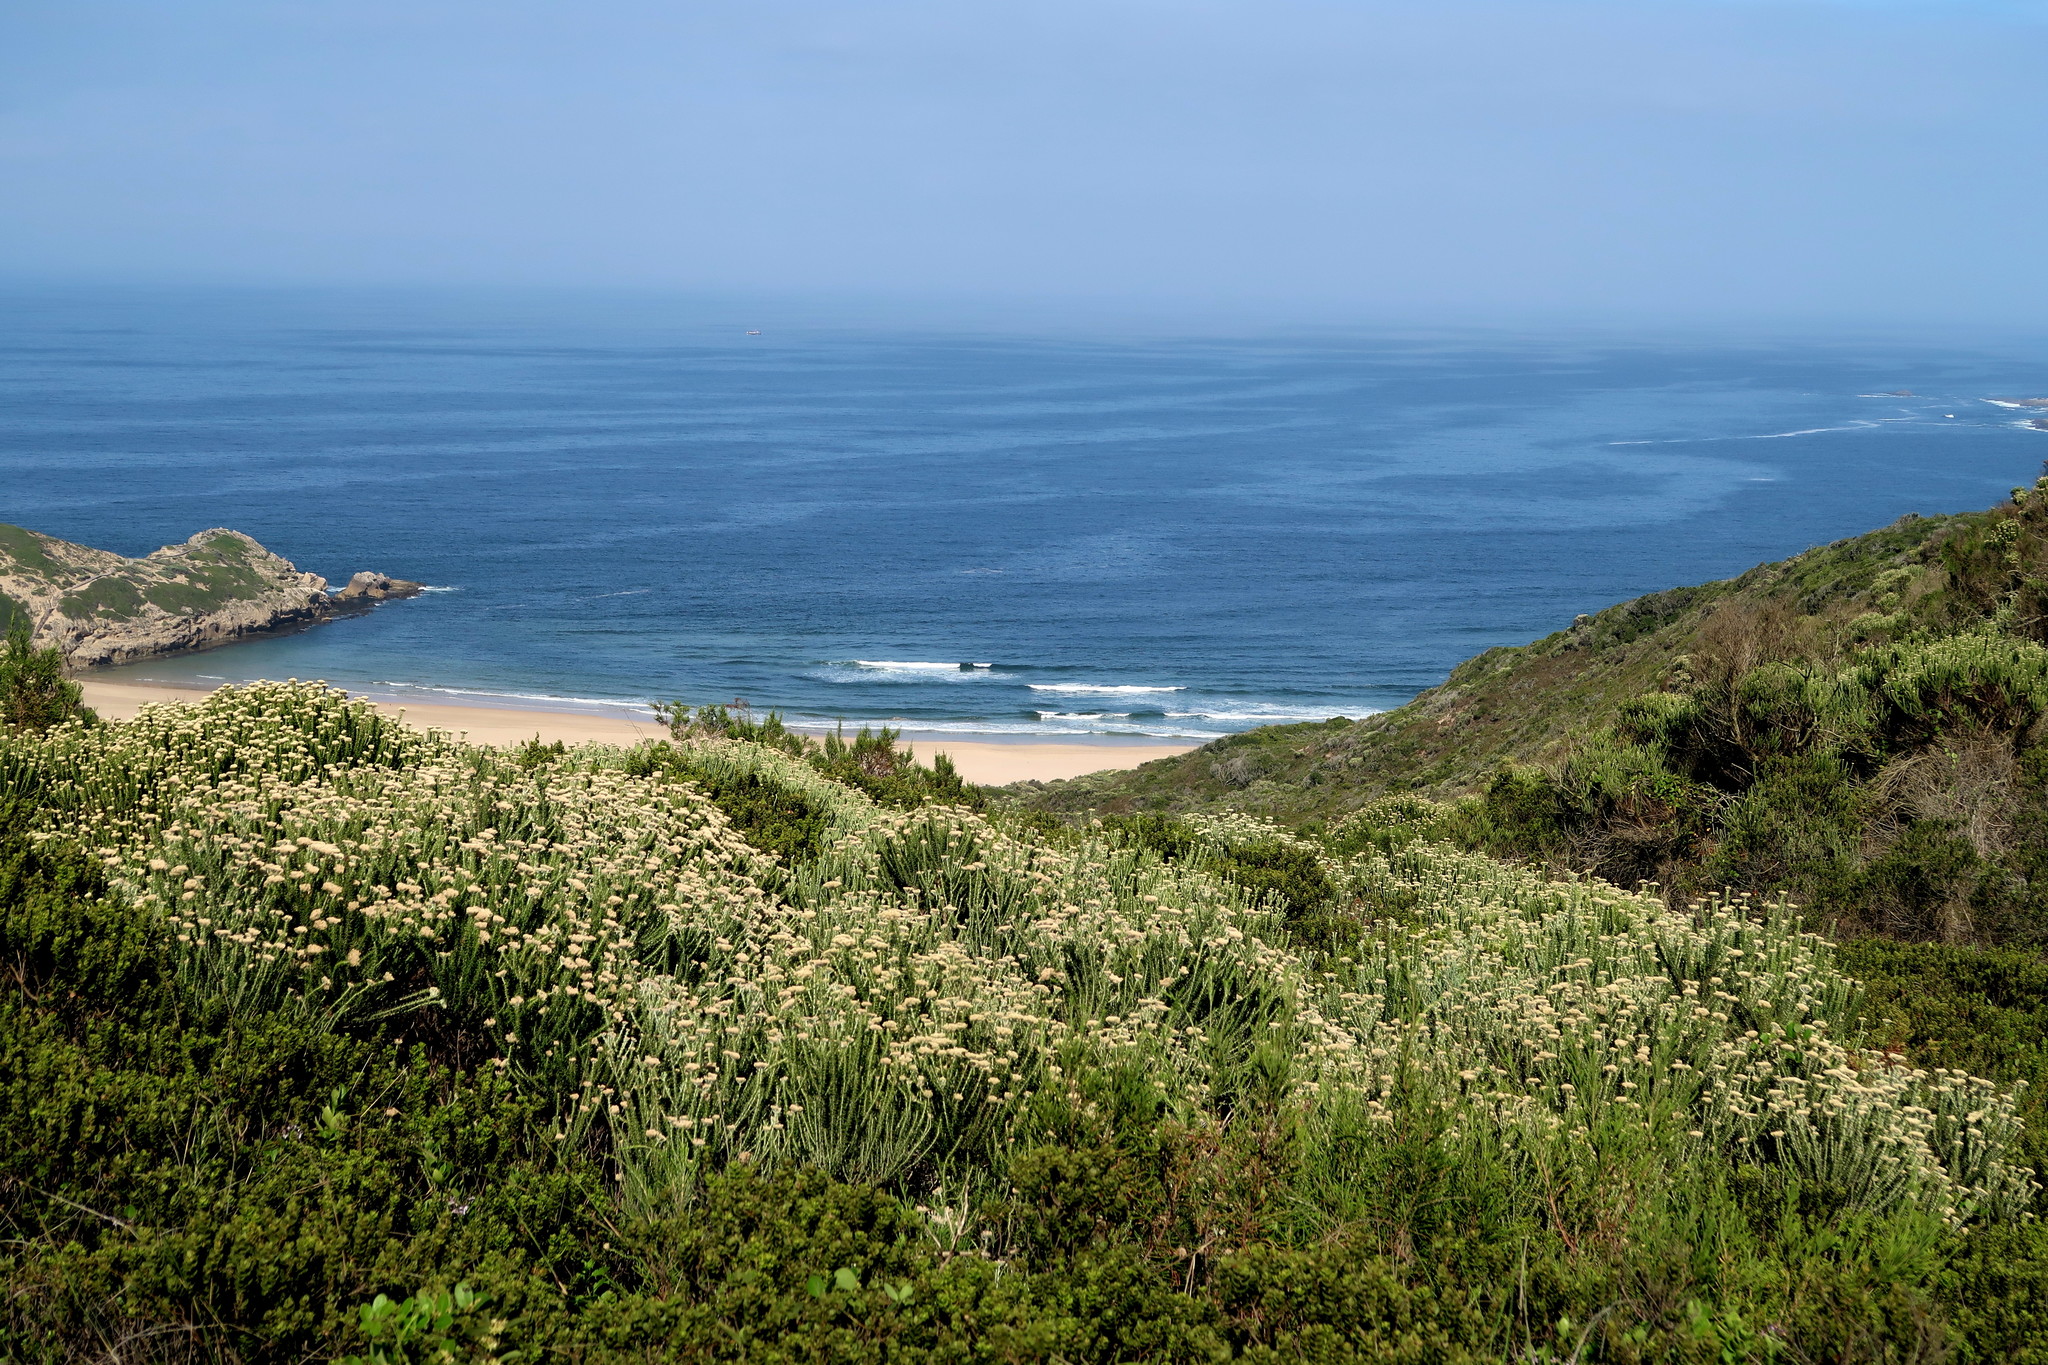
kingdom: Plantae
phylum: Tracheophyta
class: Magnoliopsida
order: Asterales
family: Asteraceae
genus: Metalasia
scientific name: Metalasia muricata
